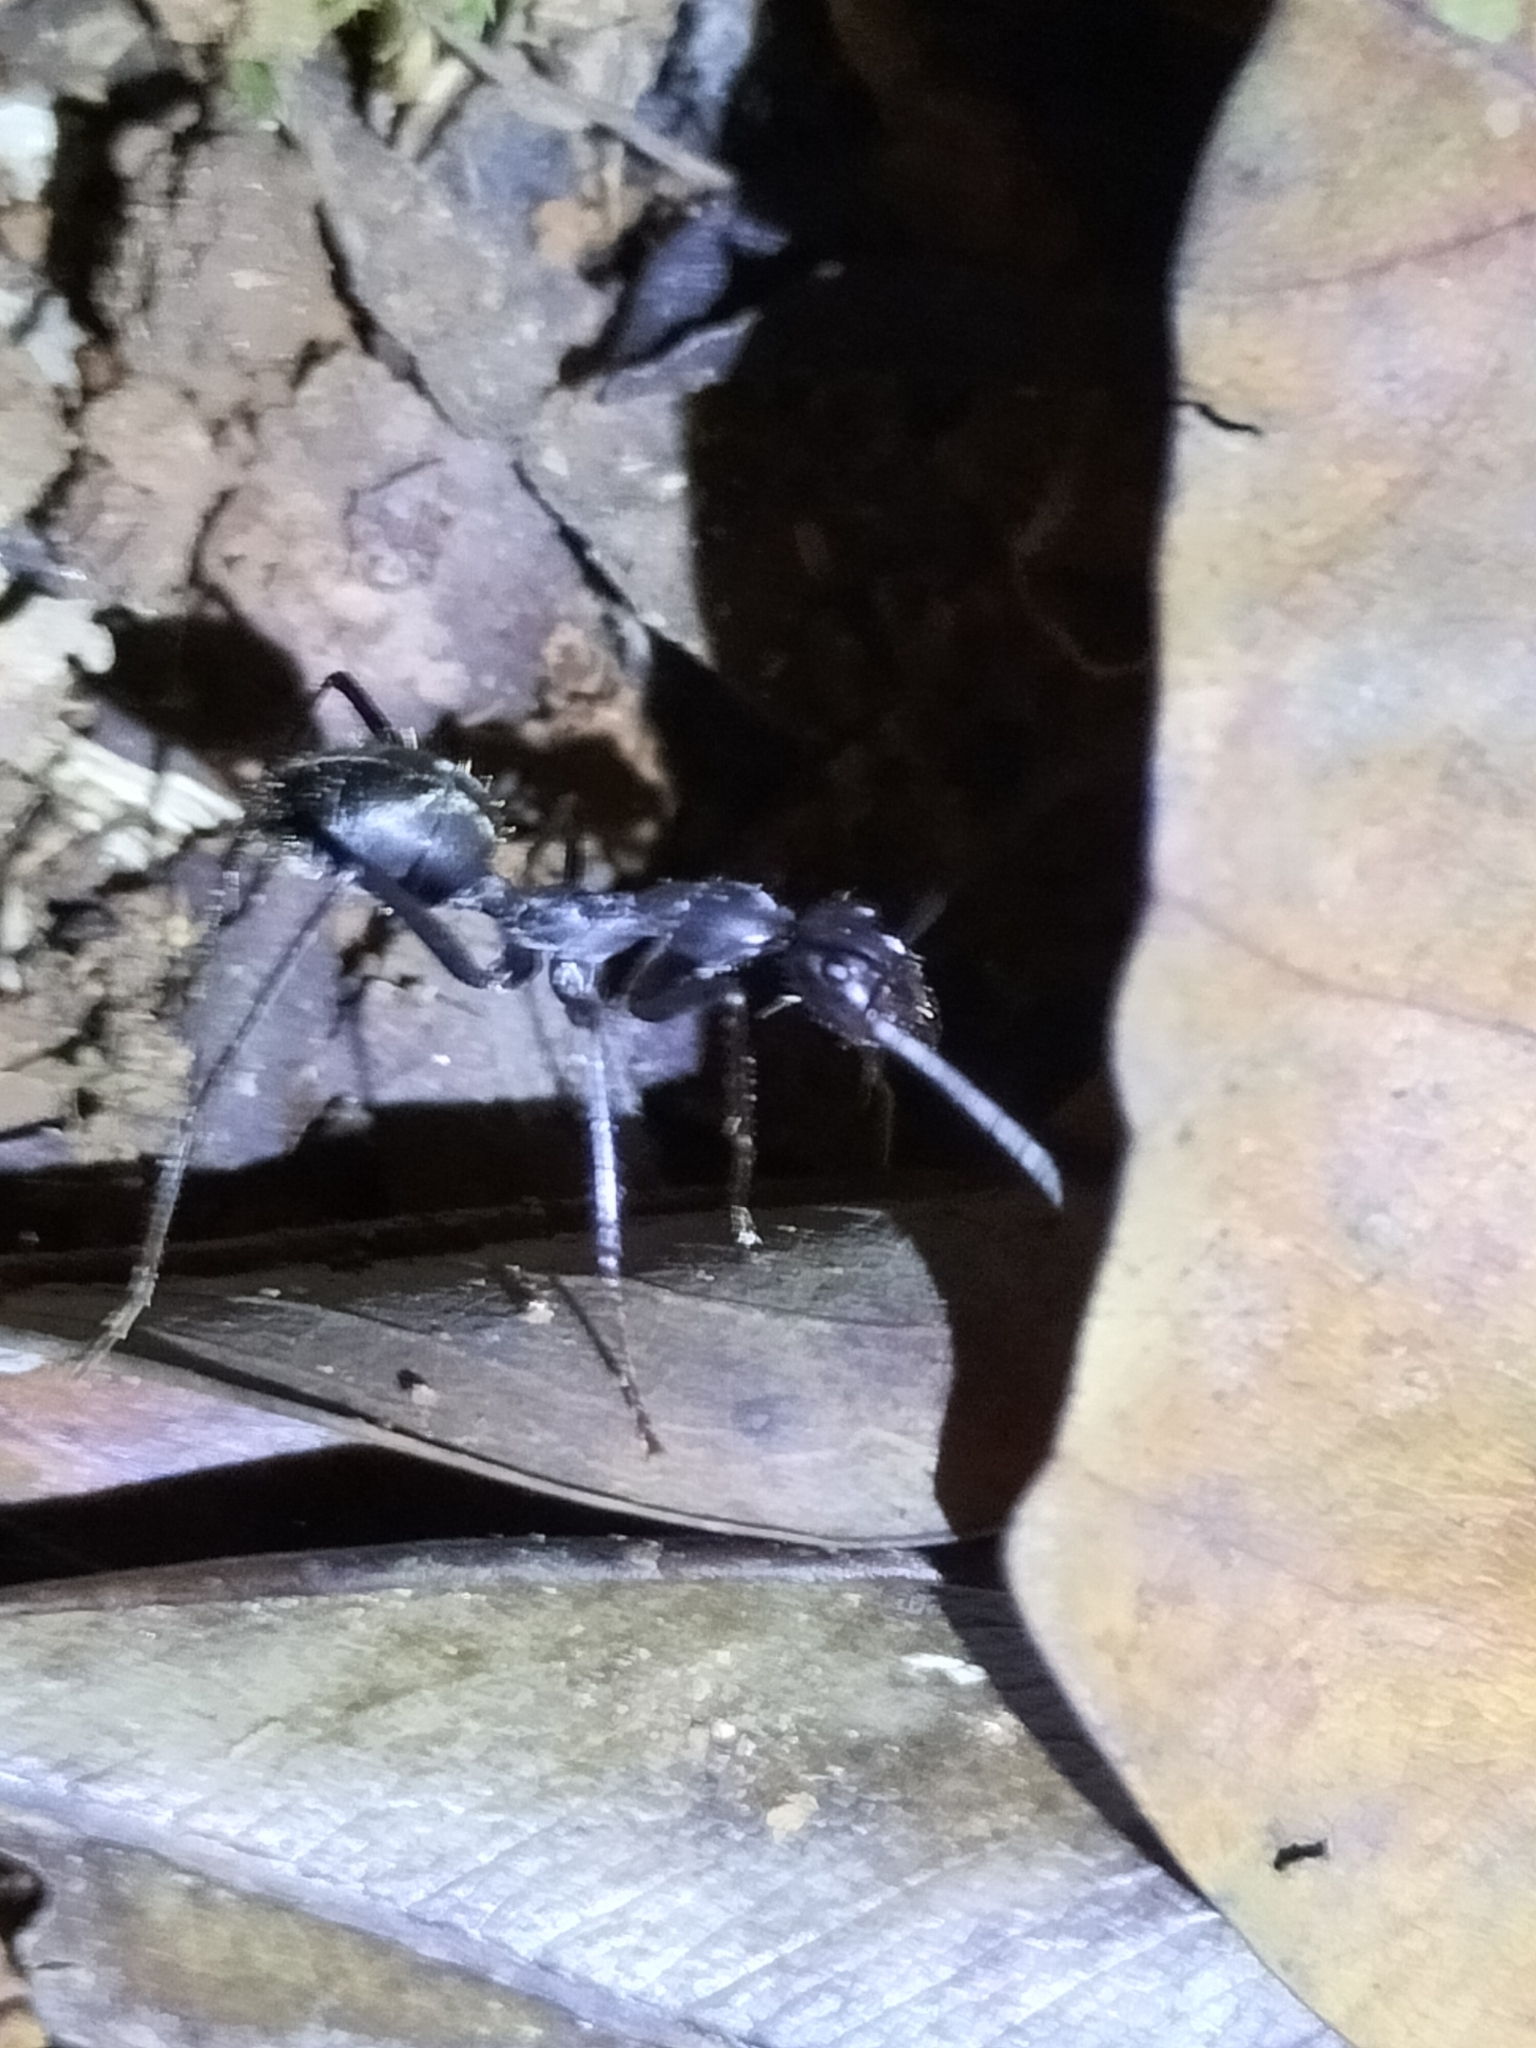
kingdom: Animalia
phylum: Arthropoda
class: Insecta
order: Hymenoptera
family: Formicidae
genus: Notostigma
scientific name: Notostigma carazzii
